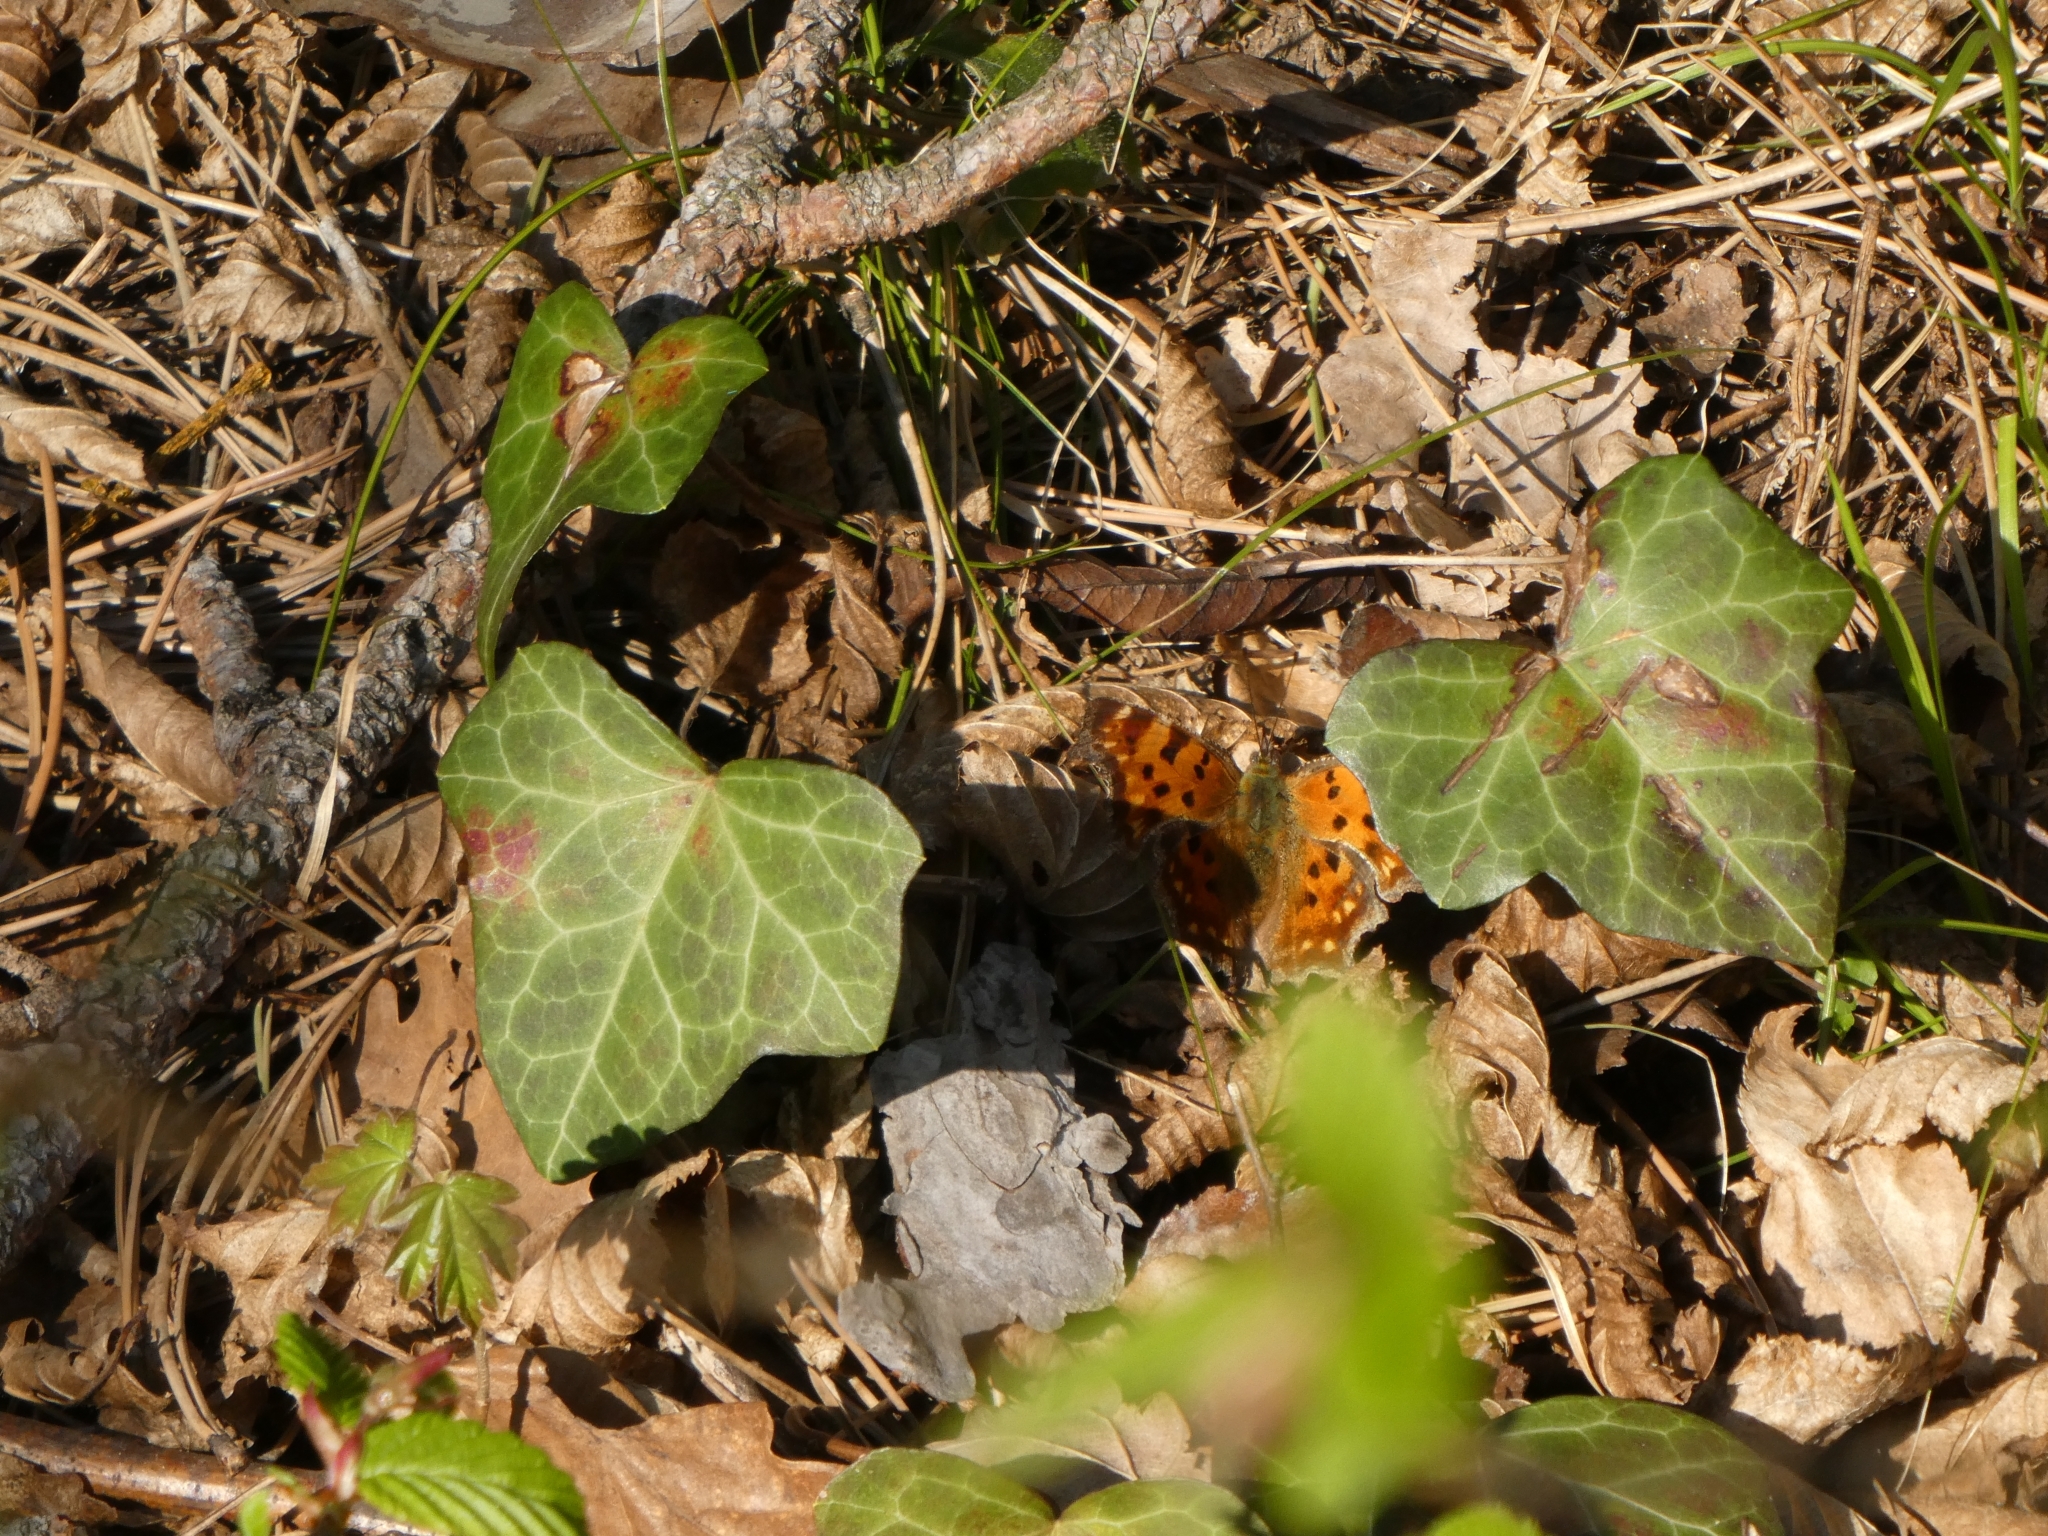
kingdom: Animalia
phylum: Arthropoda
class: Insecta
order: Lepidoptera
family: Nymphalidae
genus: Polygonia
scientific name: Polygonia c-album
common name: Comma
